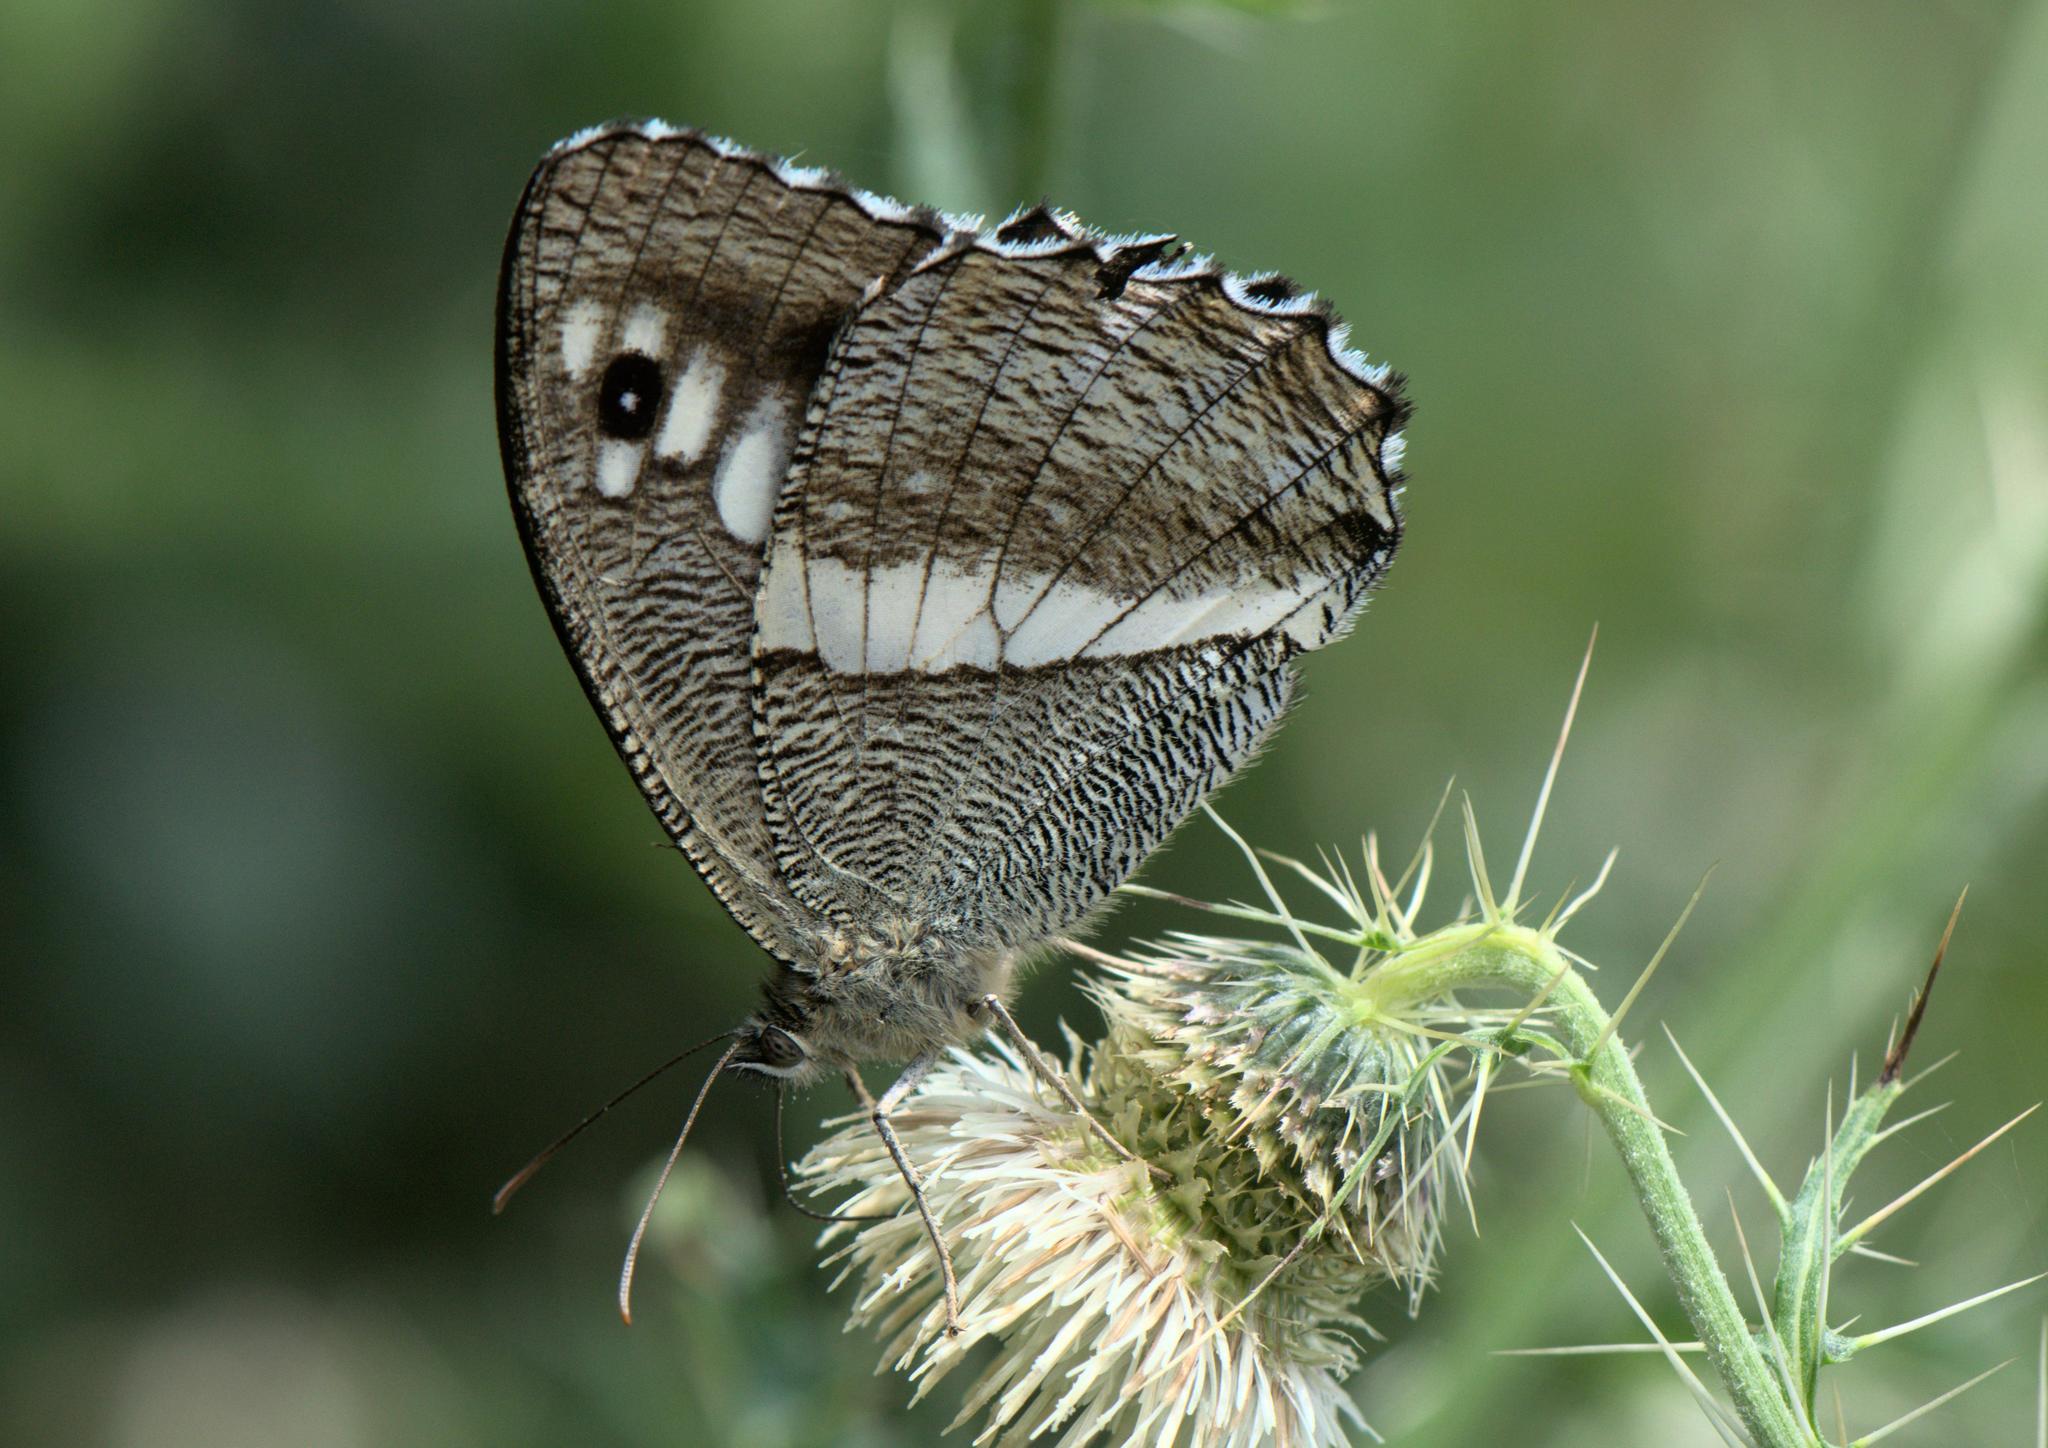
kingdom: Animalia
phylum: Arthropoda
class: Insecta
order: Lepidoptera
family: Nymphalidae
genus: Satyrus
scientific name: Satyrus
